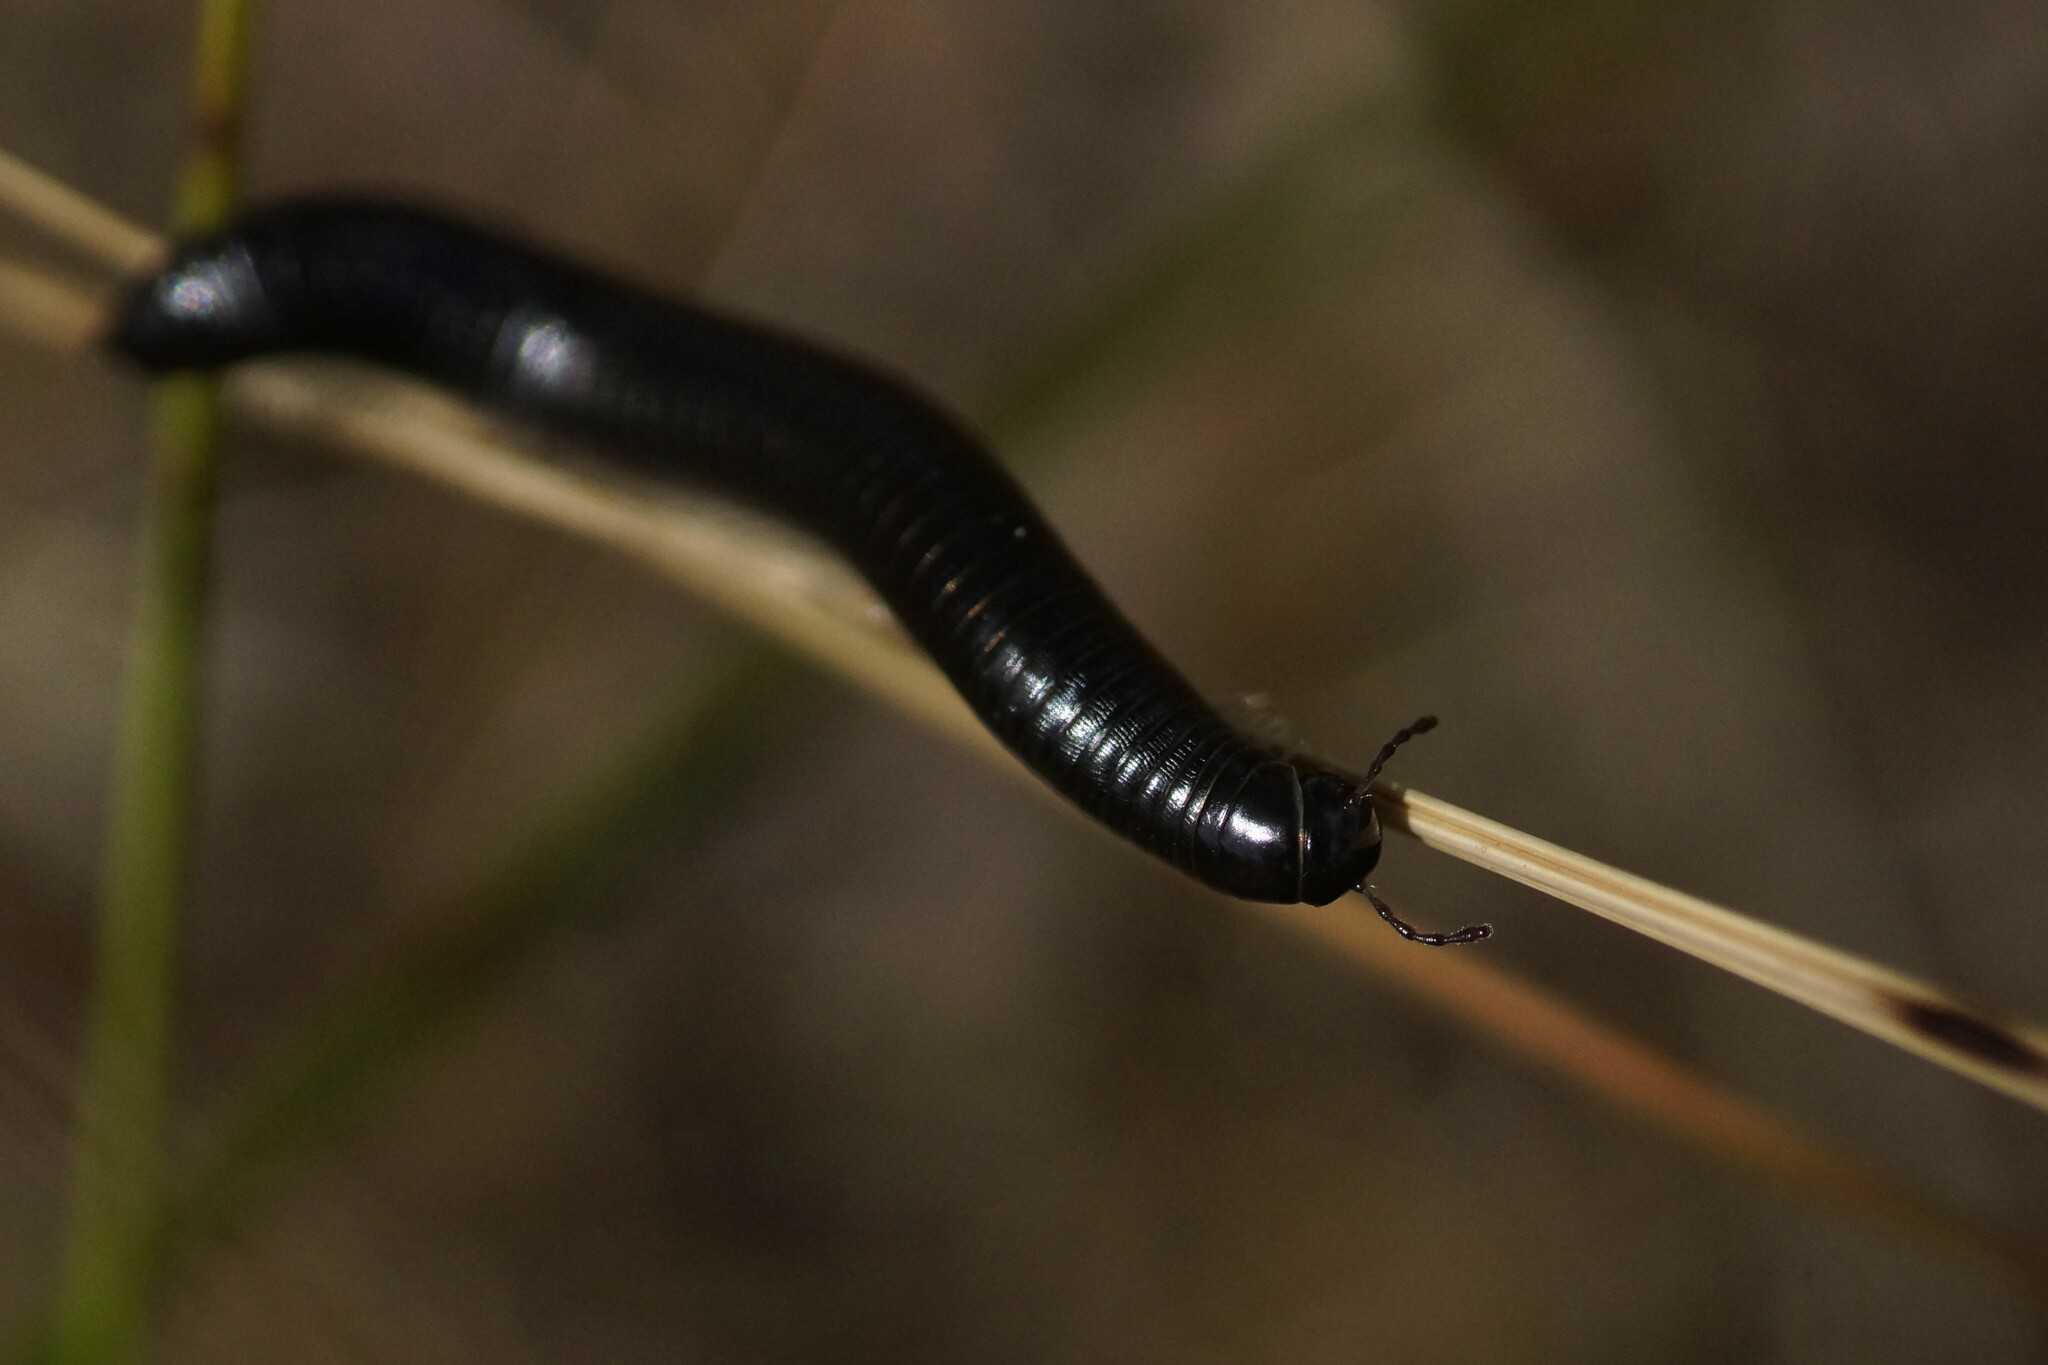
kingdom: Animalia
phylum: Arthropoda
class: Diplopoda
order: Julida
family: Julidae
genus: Ommatoiulus
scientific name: Ommatoiulus moreleti
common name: Portuguese millipede
